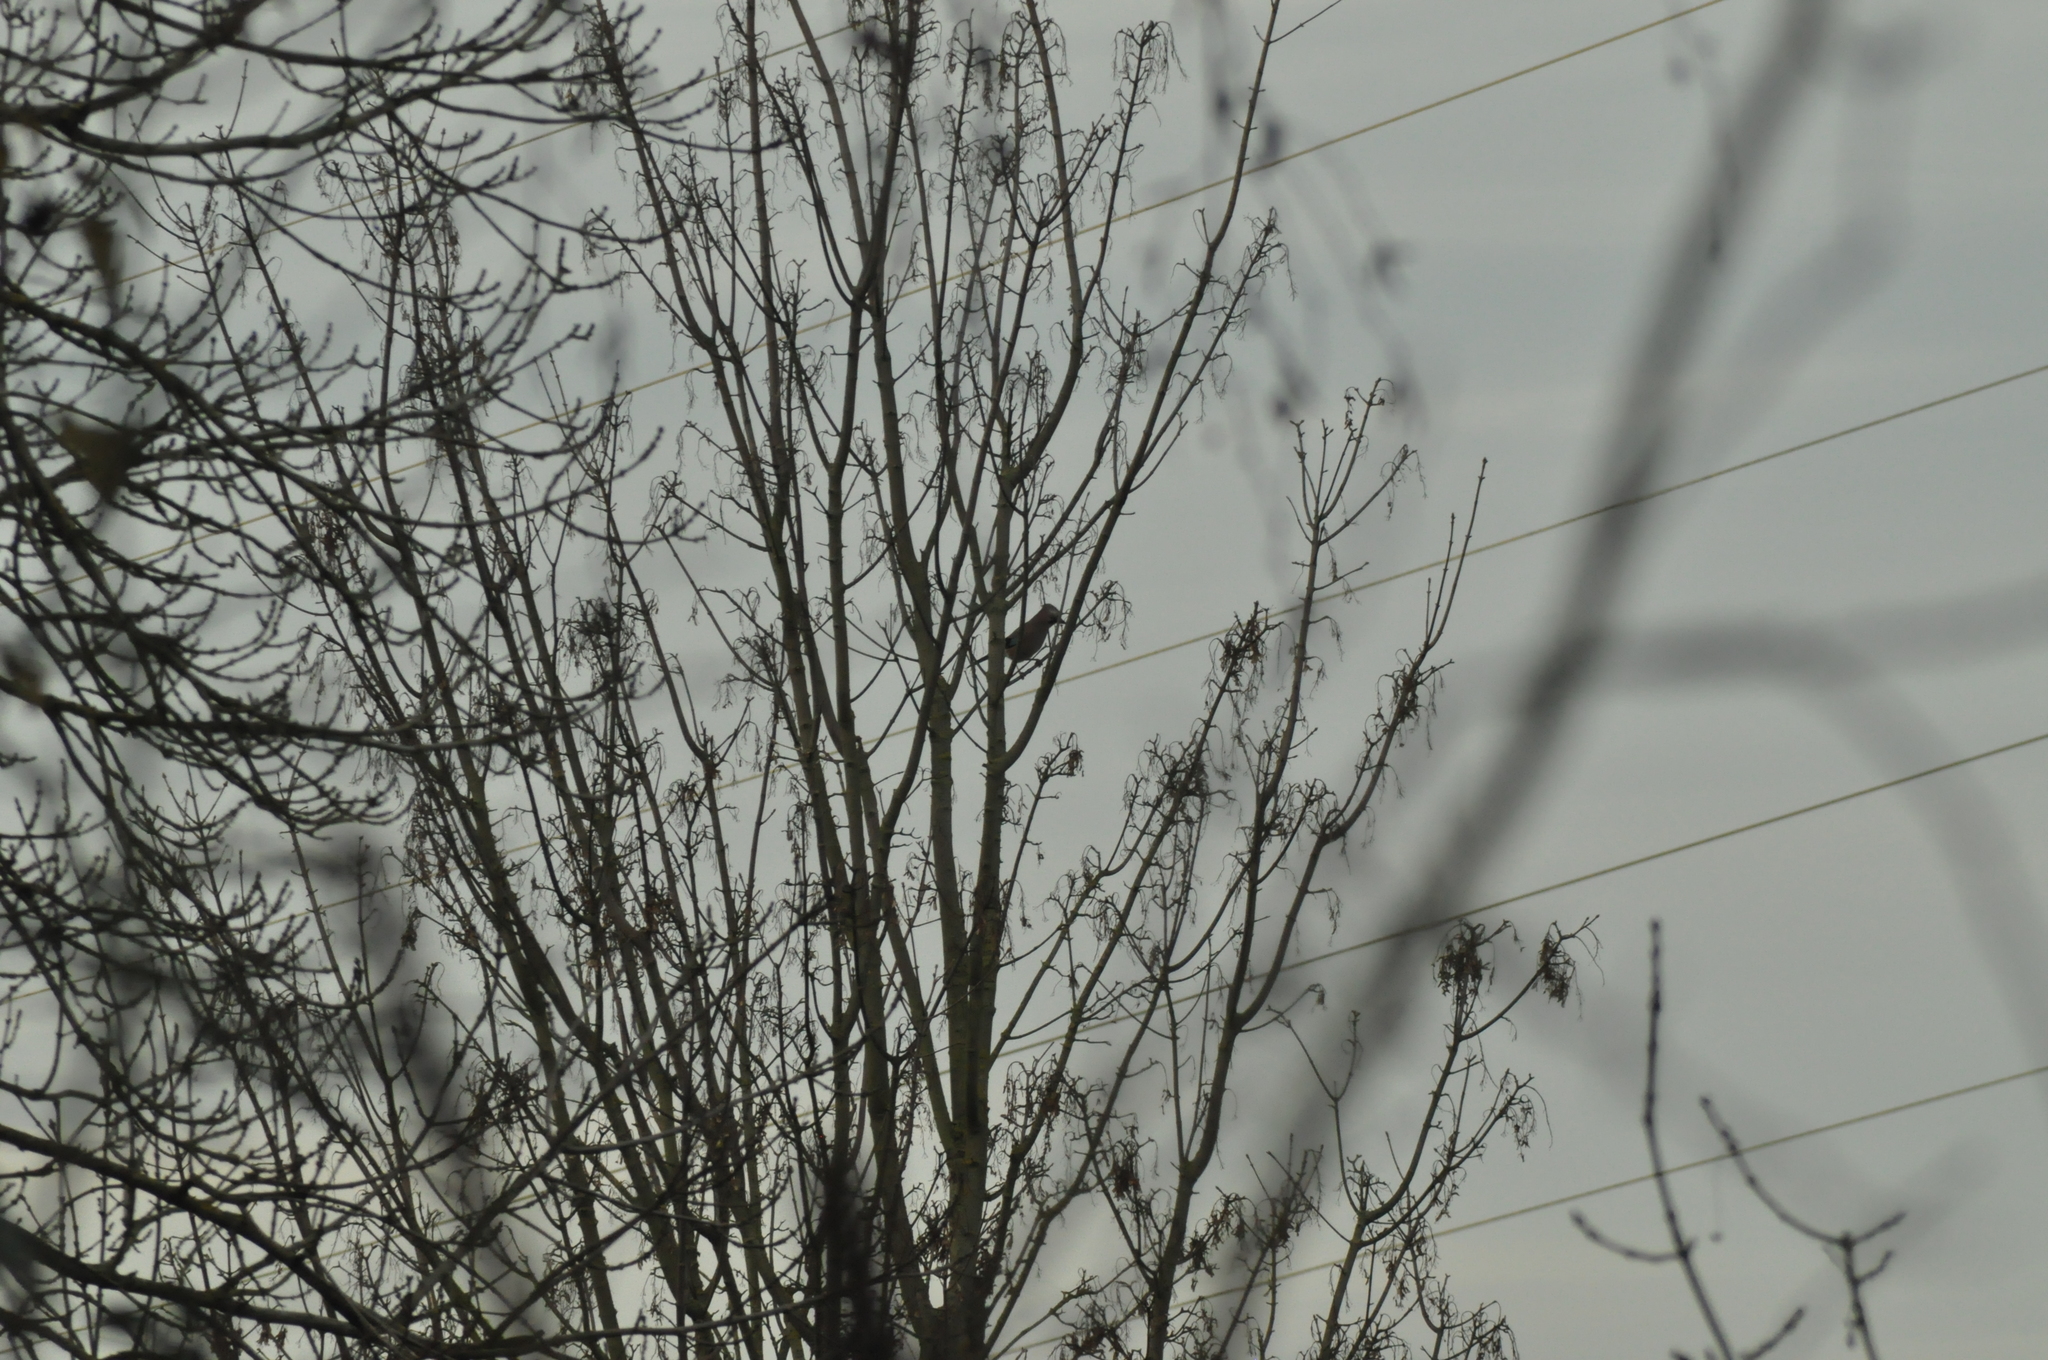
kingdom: Animalia
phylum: Chordata
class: Aves
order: Passeriformes
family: Corvidae
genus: Garrulus
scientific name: Garrulus glandarius
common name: Eurasian jay
